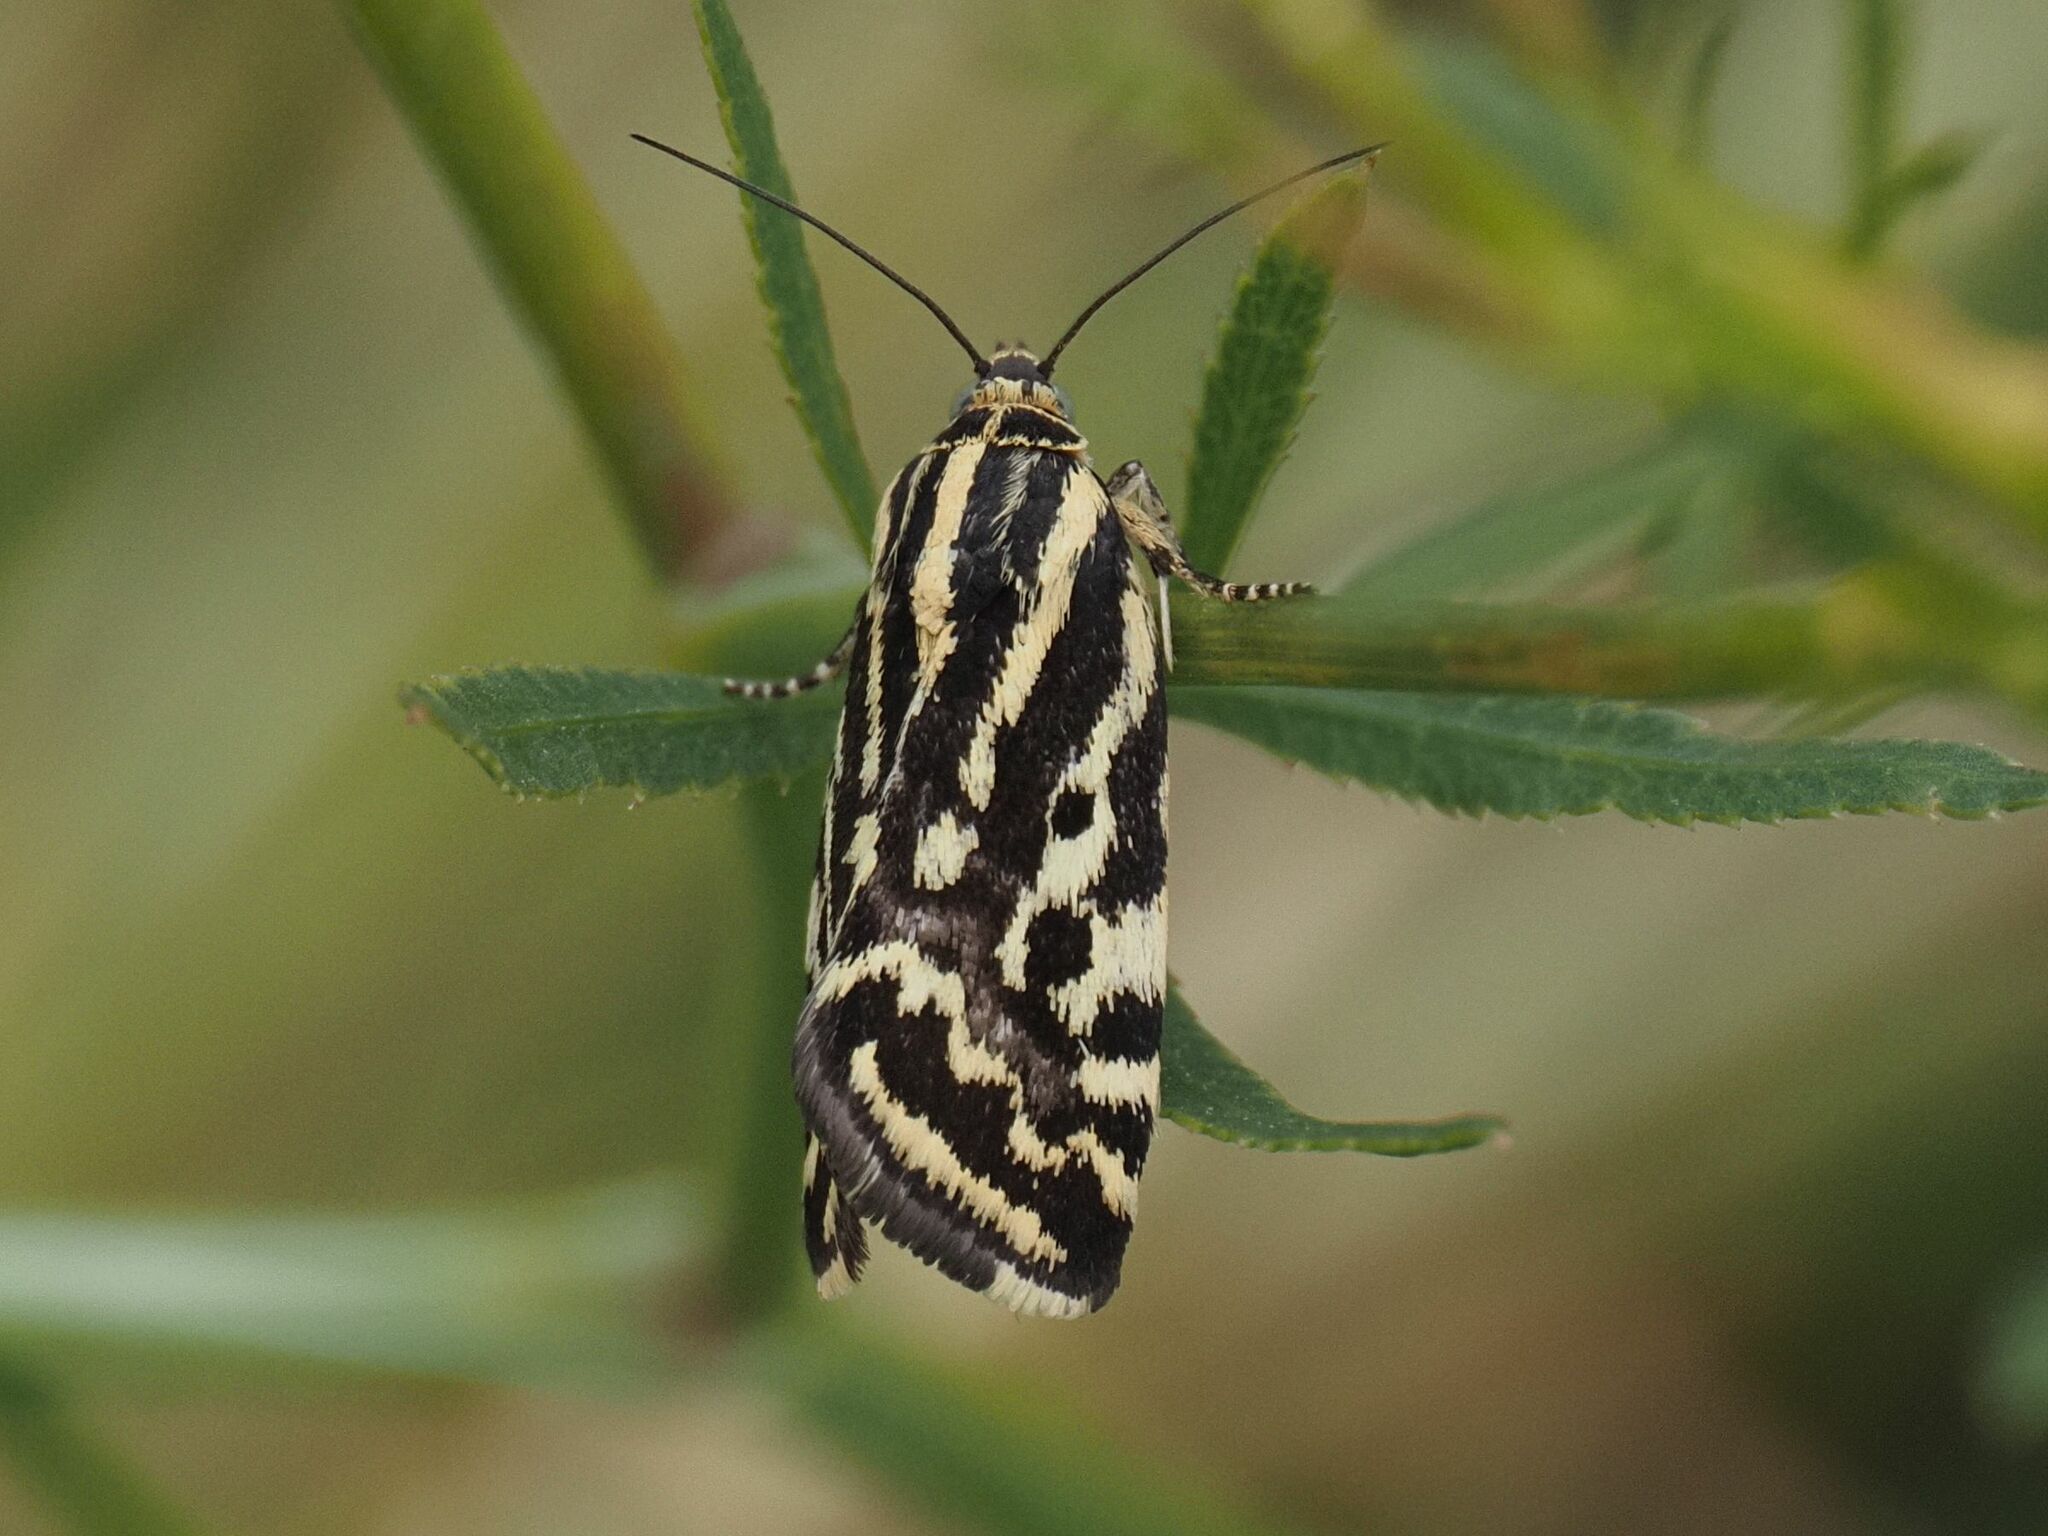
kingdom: Animalia
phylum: Arthropoda
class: Insecta
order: Lepidoptera
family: Noctuidae
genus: Acontia
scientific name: Acontia trabealis
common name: Spotted sulphur
